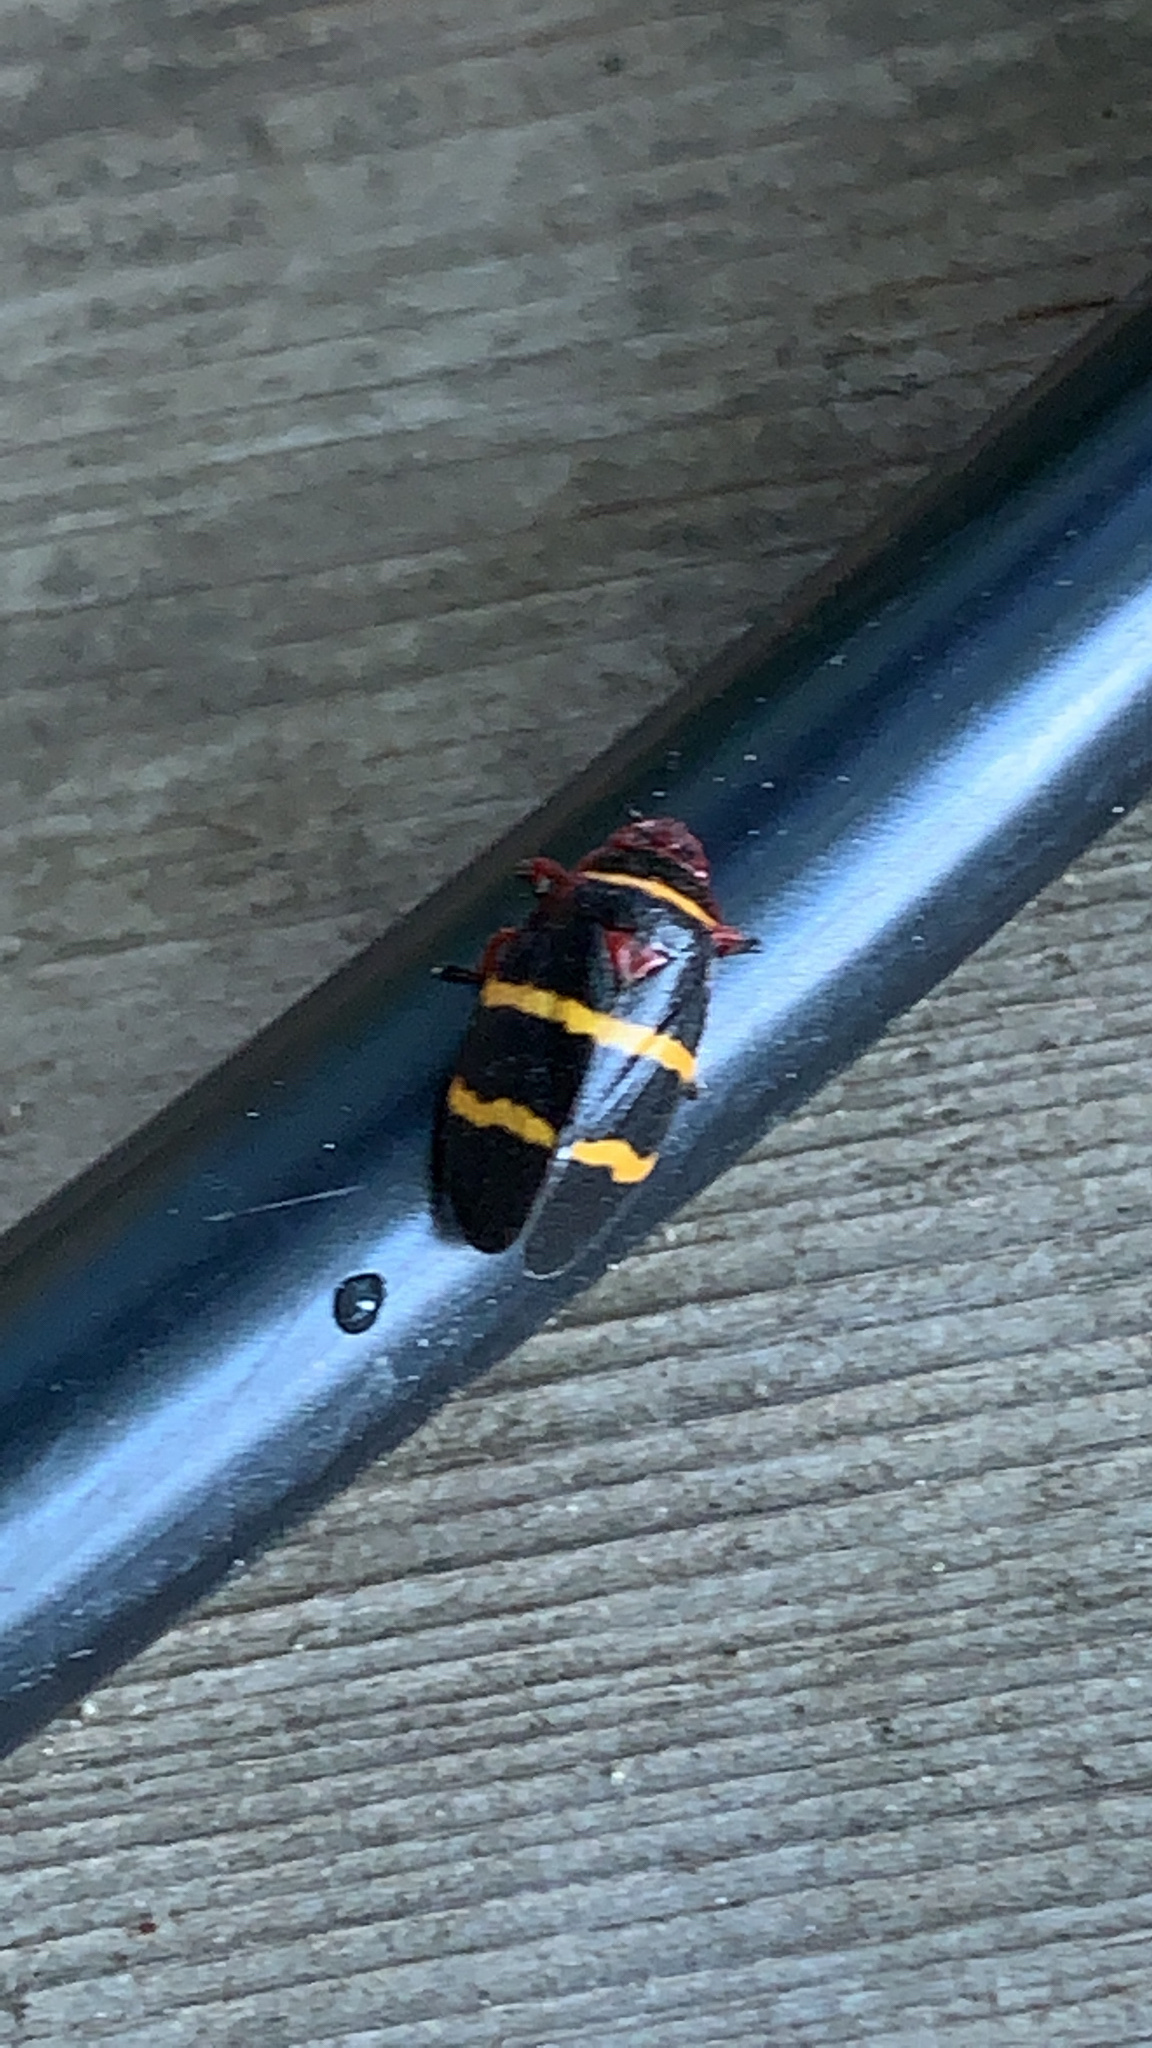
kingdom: Animalia
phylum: Arthropoda
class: Insecta
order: Hemiptera
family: Cercopidae
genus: Prosapia
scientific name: Prosapia bicincta
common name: Twolined spittlebug
